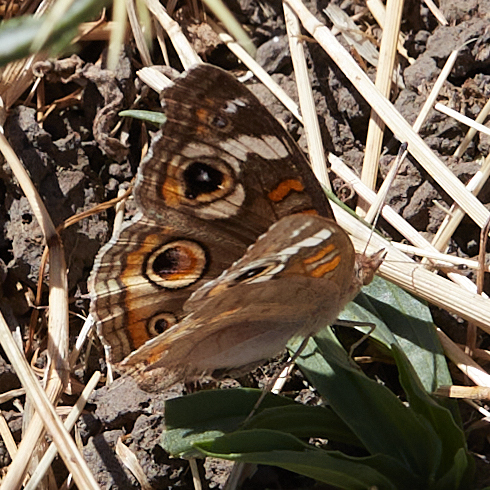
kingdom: Animalia
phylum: Arthropoda
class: Insecta
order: Lepidoptera
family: Nymphalidae
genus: Junonia
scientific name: Junonia grisea
